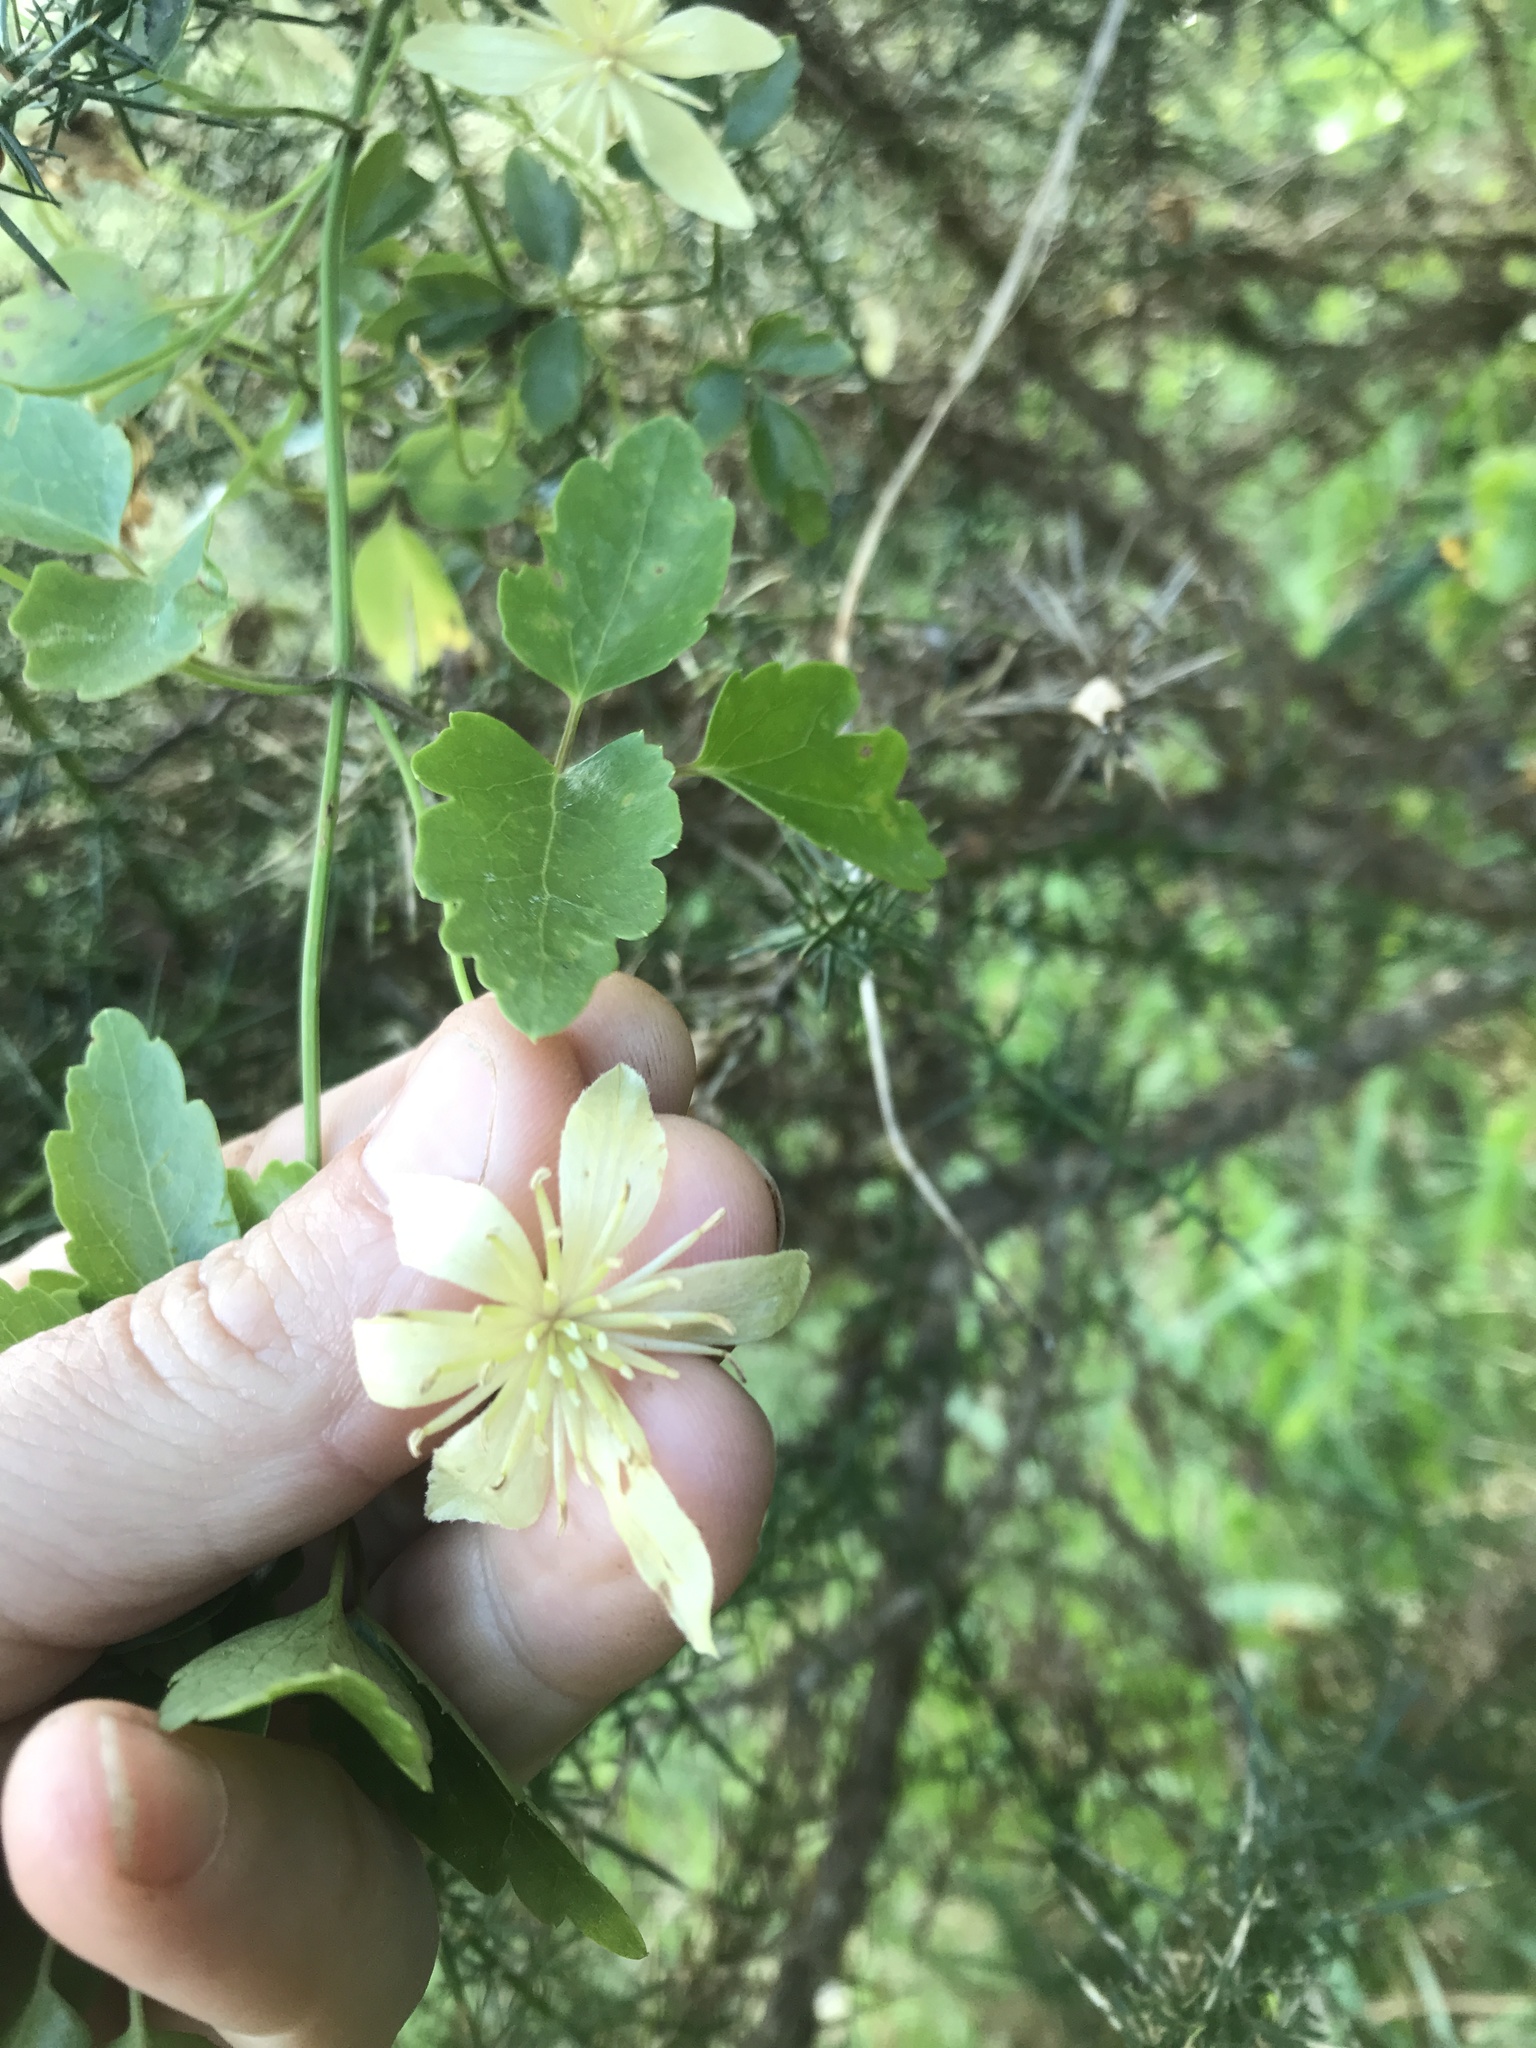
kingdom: Plantae
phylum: Tracheophyta
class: Magnoliopsida
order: Ranunculales
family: Ranunculaceae
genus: Clematis
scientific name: Clematis forsteri
